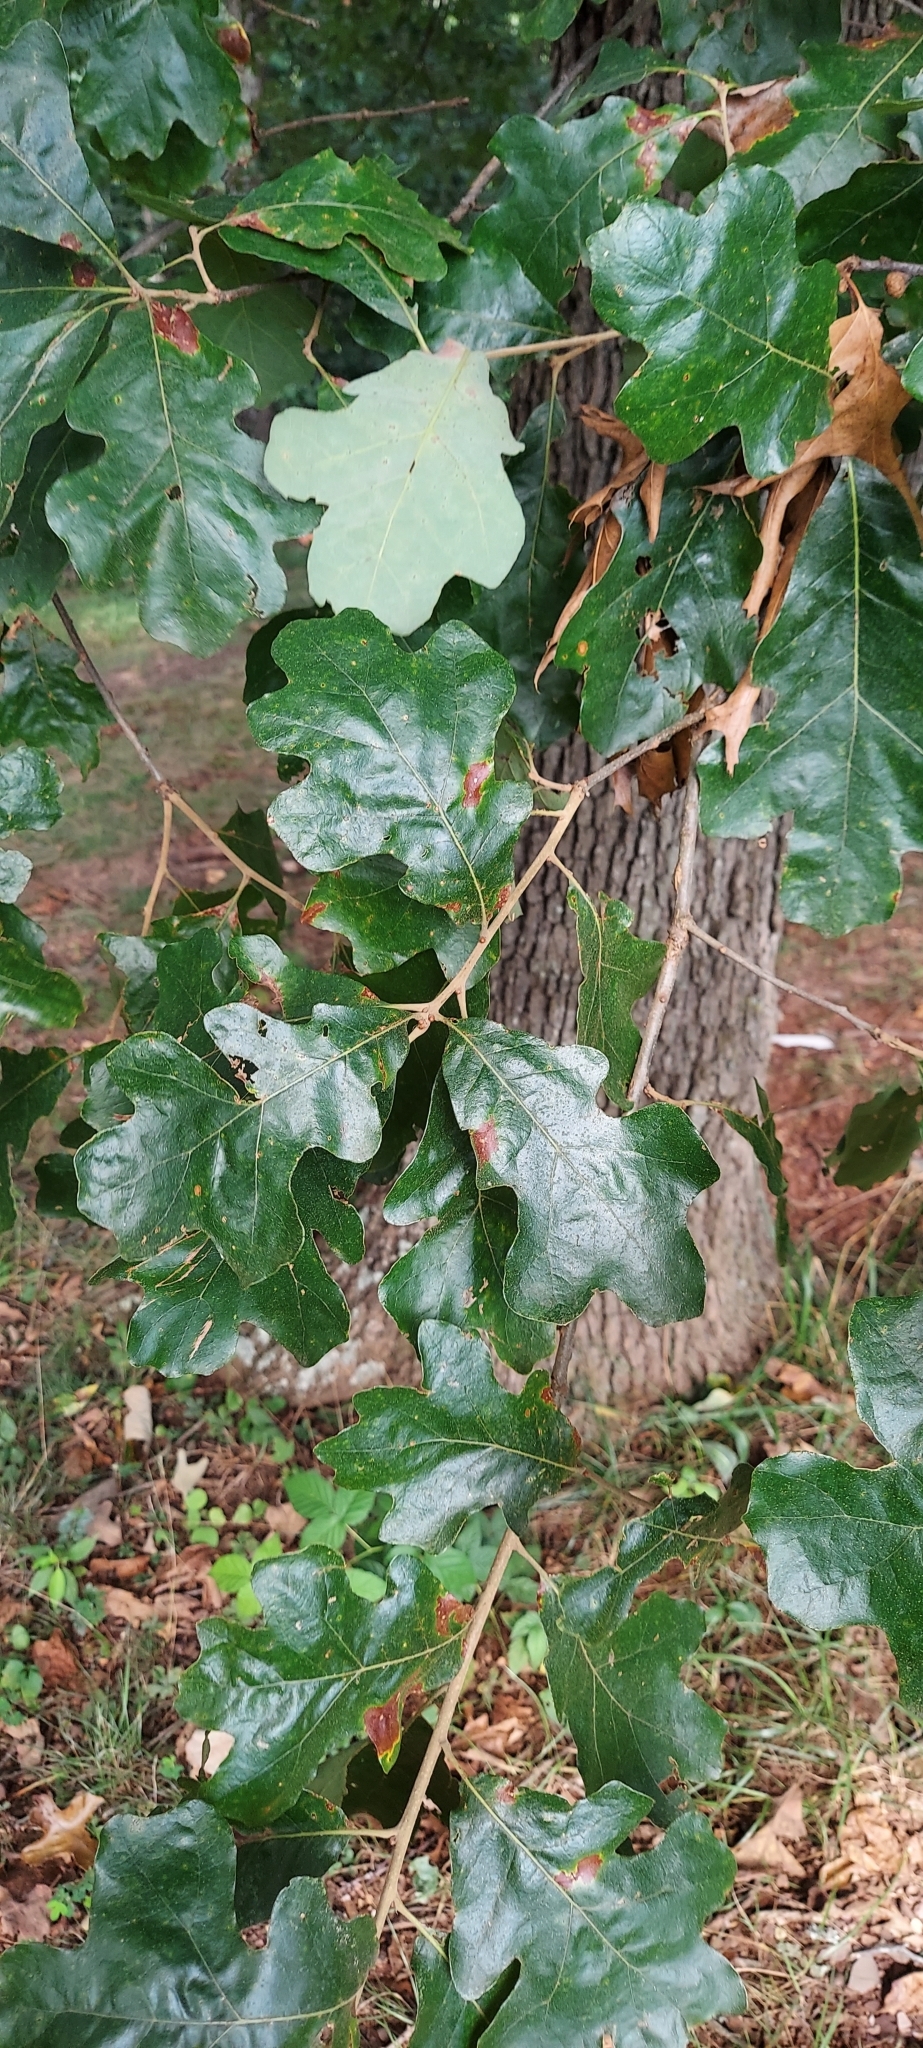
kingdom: Plantae
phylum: Tracheophyta
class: Magnoliopsida
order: Fagales
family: Fagaceae
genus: Quercus
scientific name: Quercus stellata
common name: Post oak
